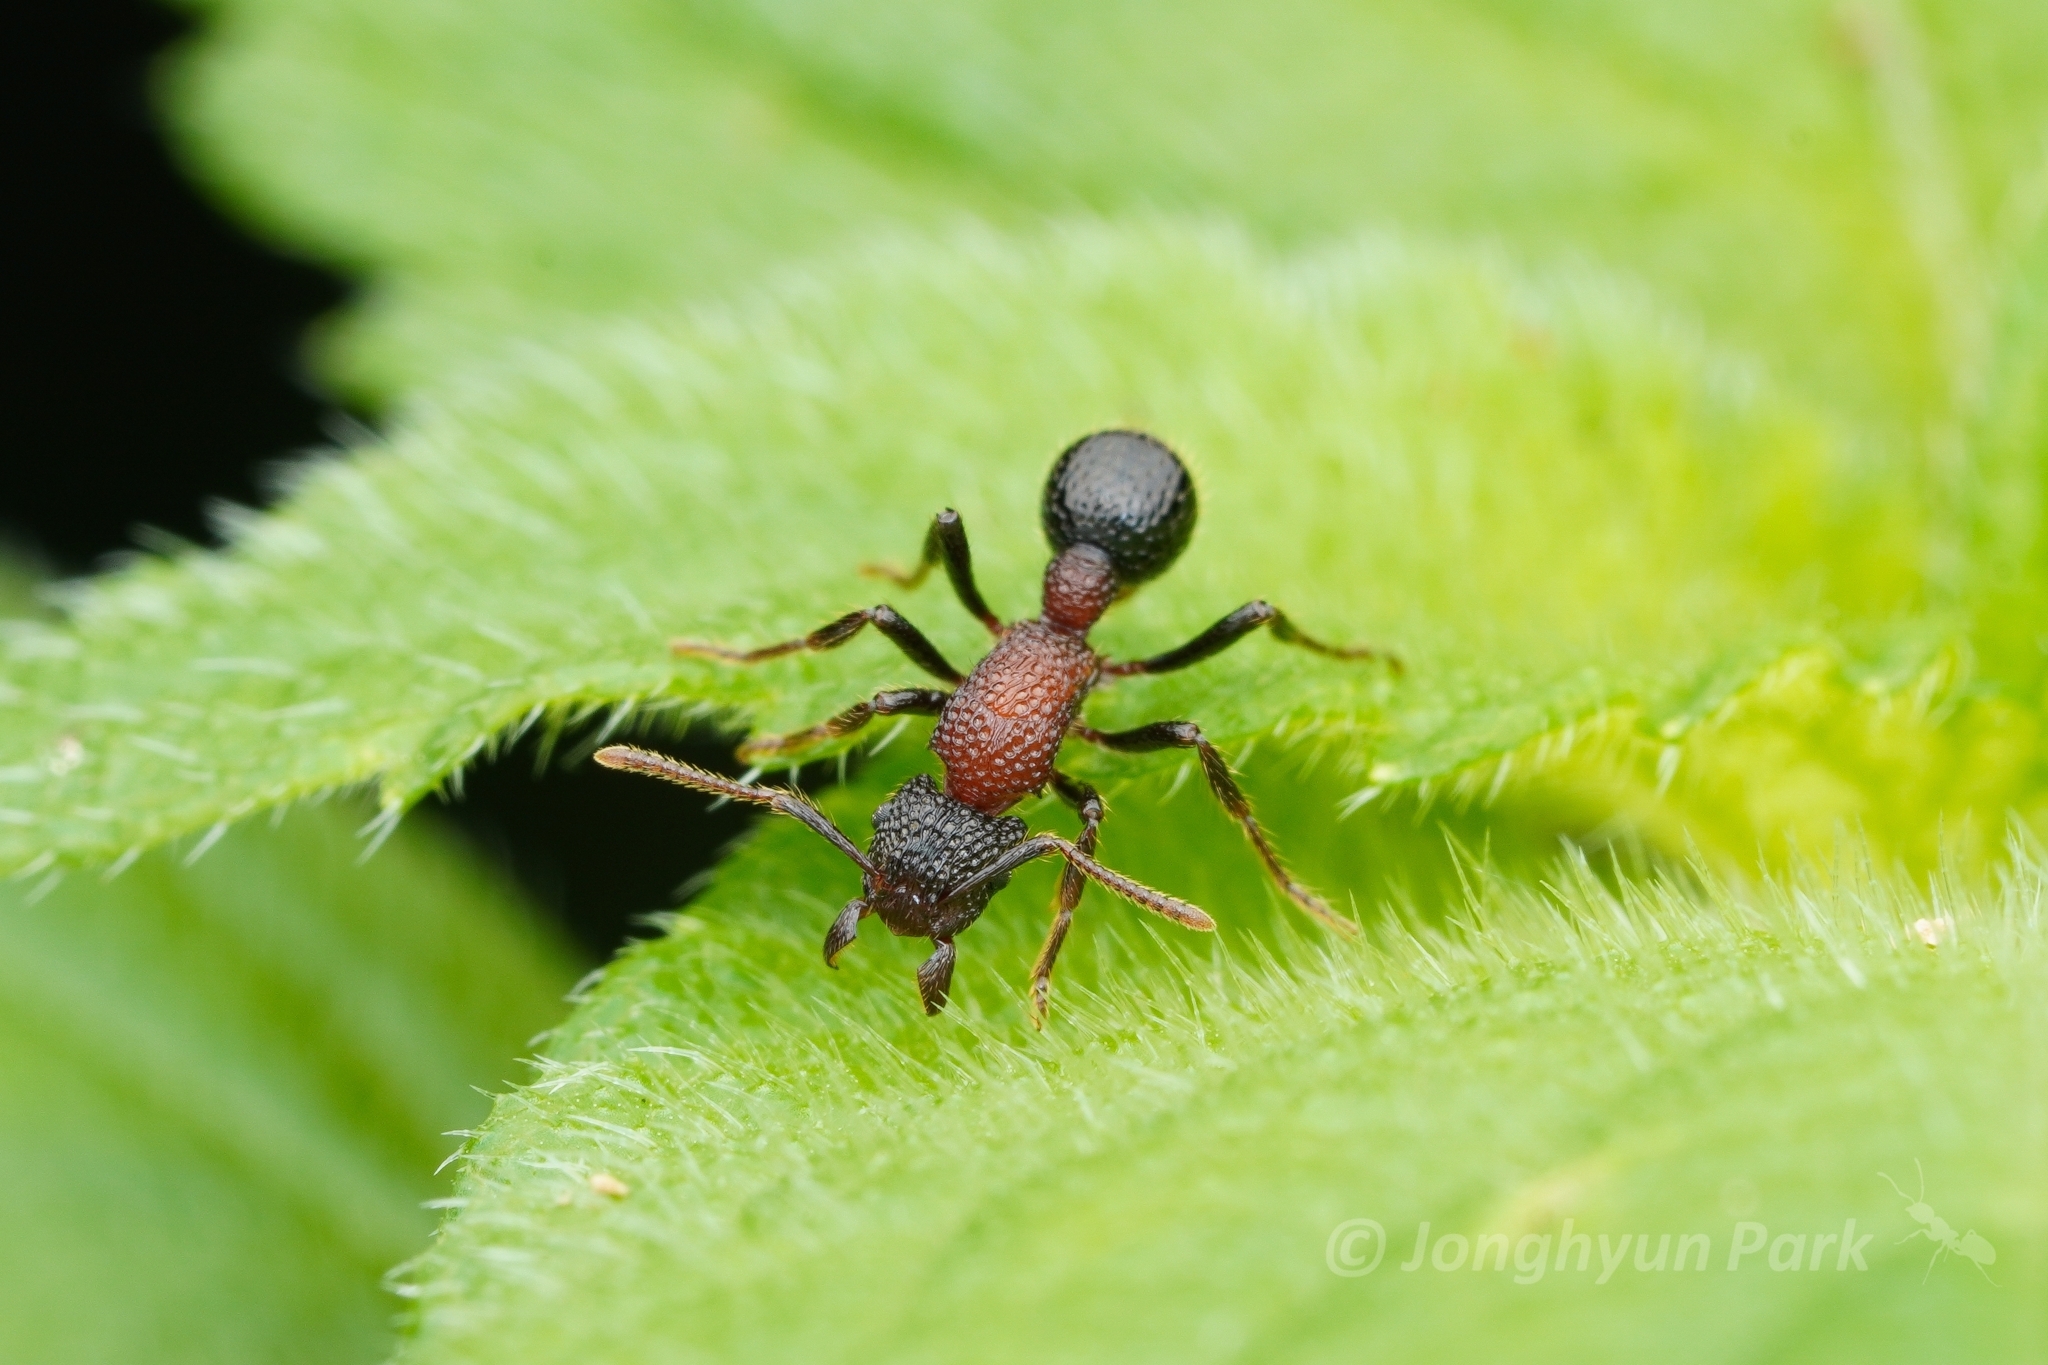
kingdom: Animalia
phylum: Arthropoda
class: Insecta
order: Hymenoptera
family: Formicidae
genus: Stictoponera
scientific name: Stictoponera bicolor
